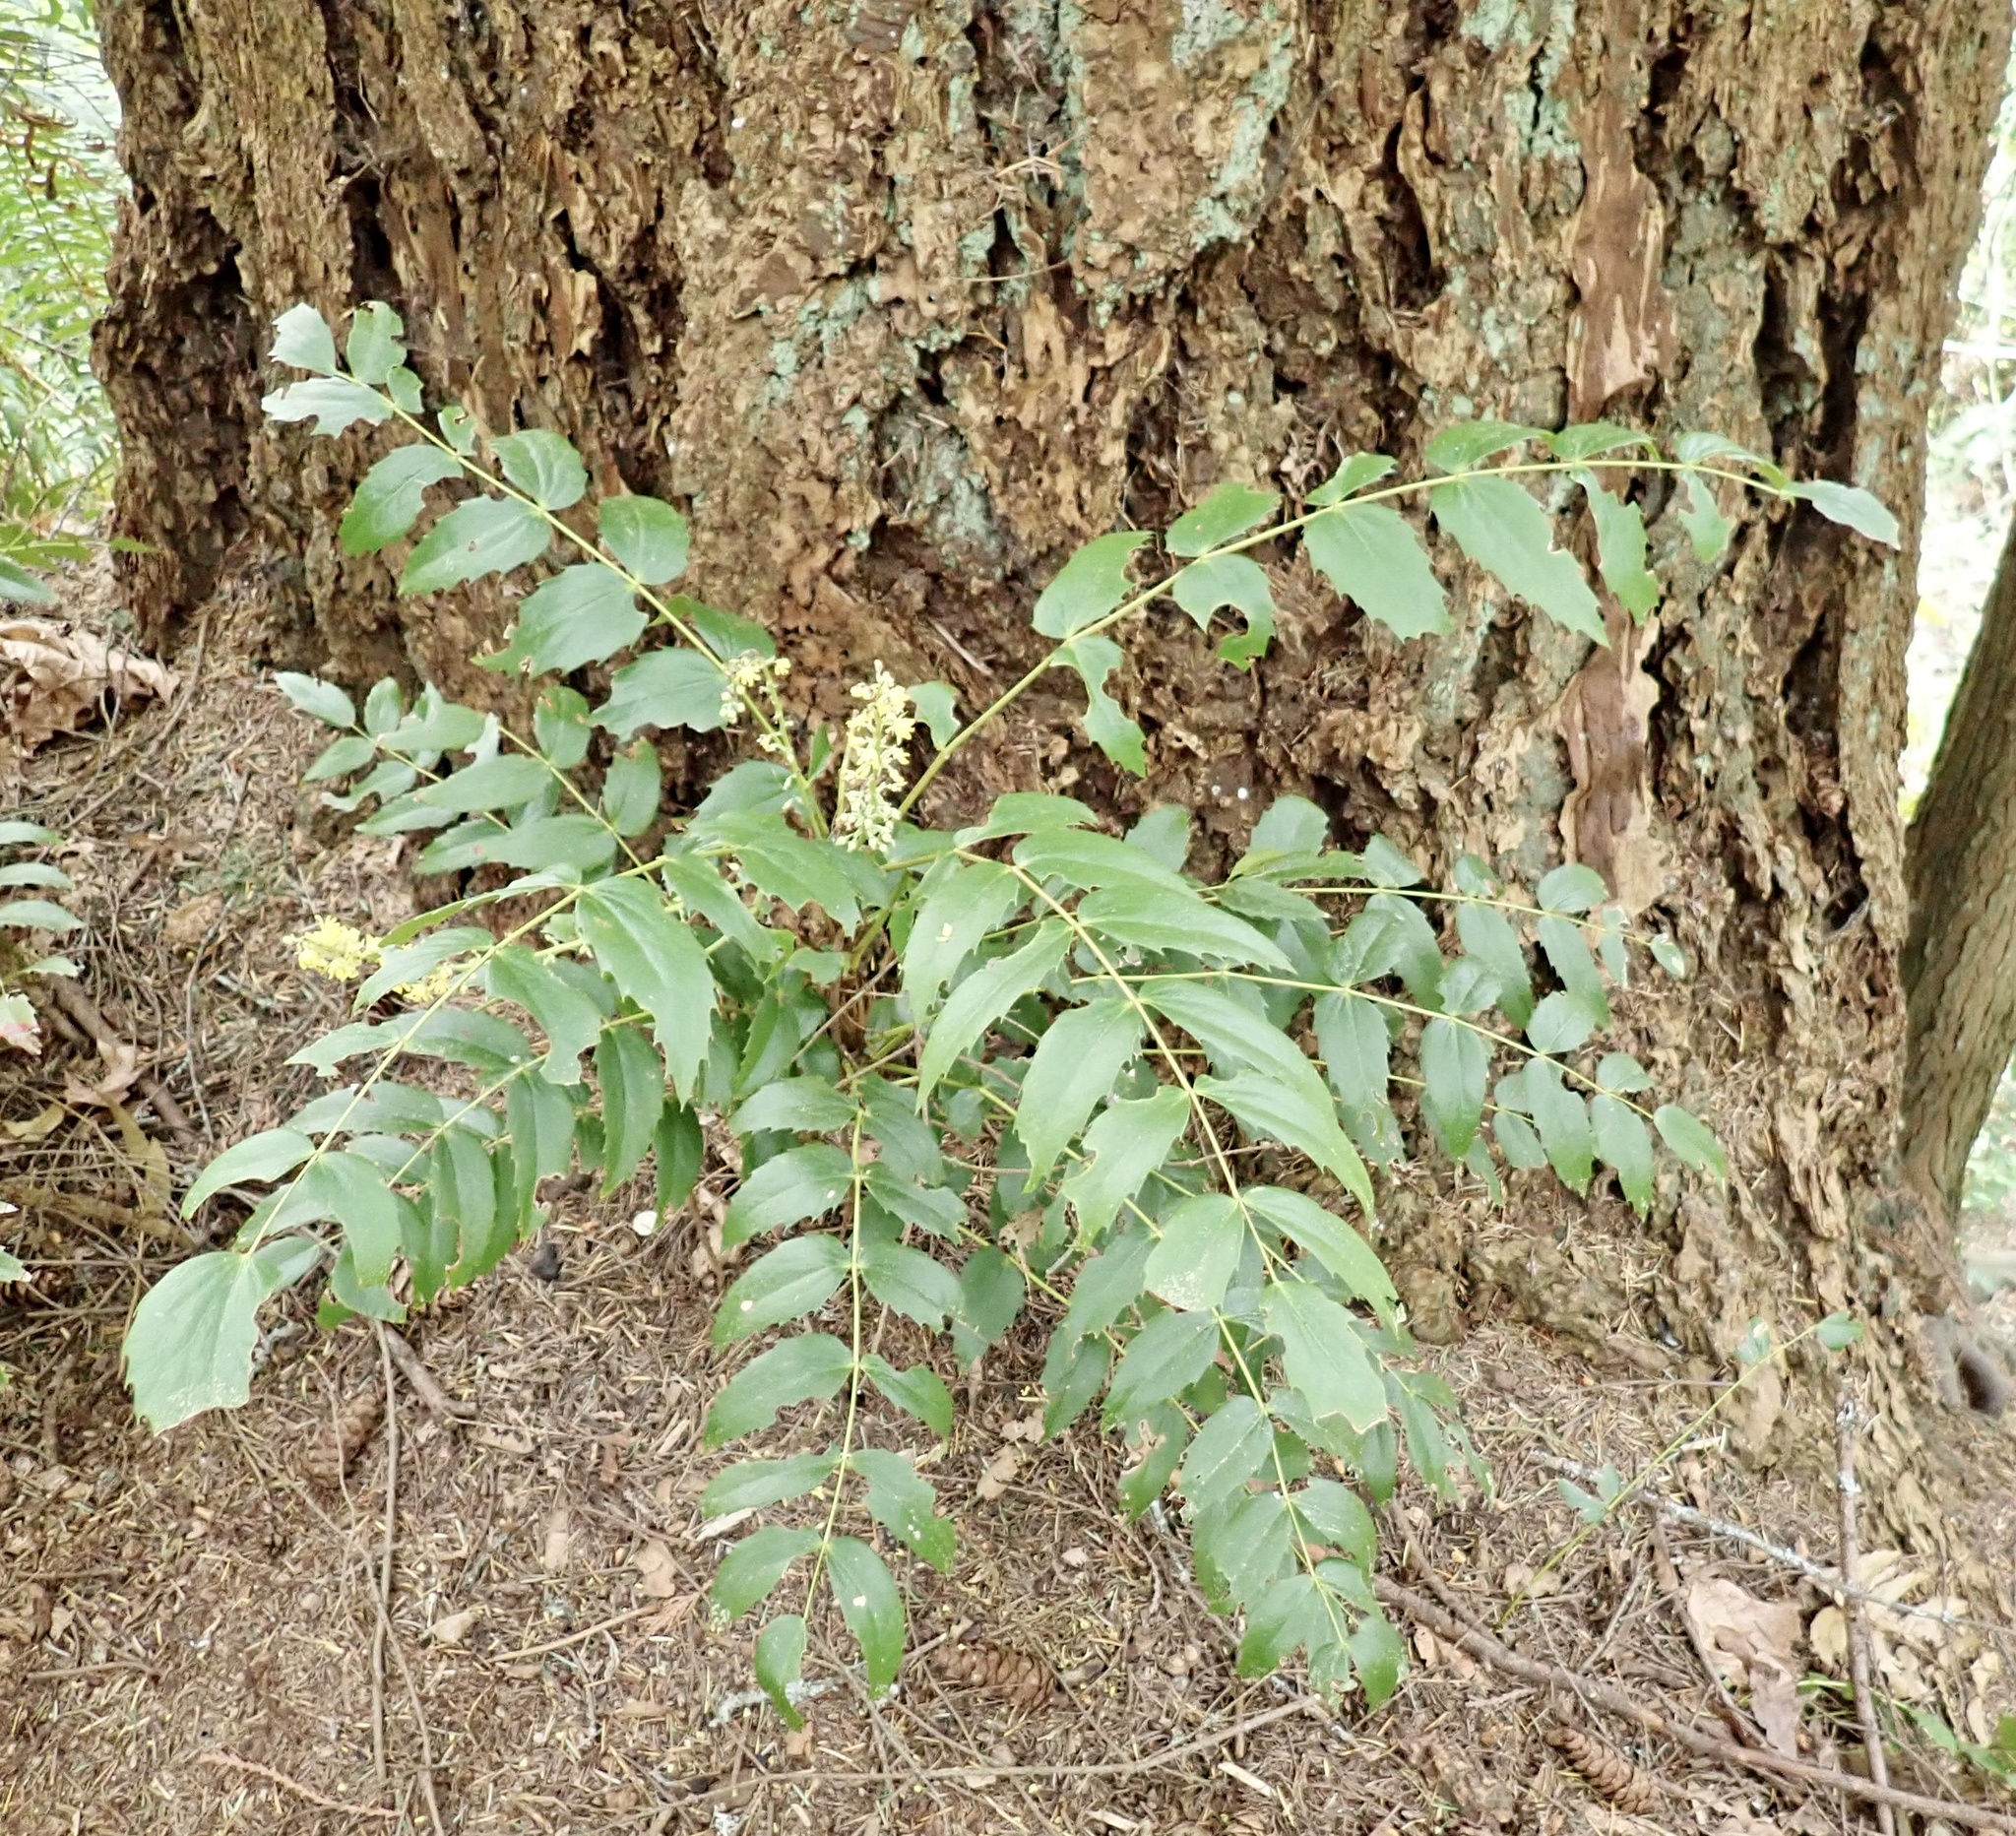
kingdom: Plantae
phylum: Tracheophyta
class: Magnoliopsida
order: Ranunculales
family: Berberidaceae
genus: Mahonia
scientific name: Mahonia nervosa
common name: Cascade oregon-grape
